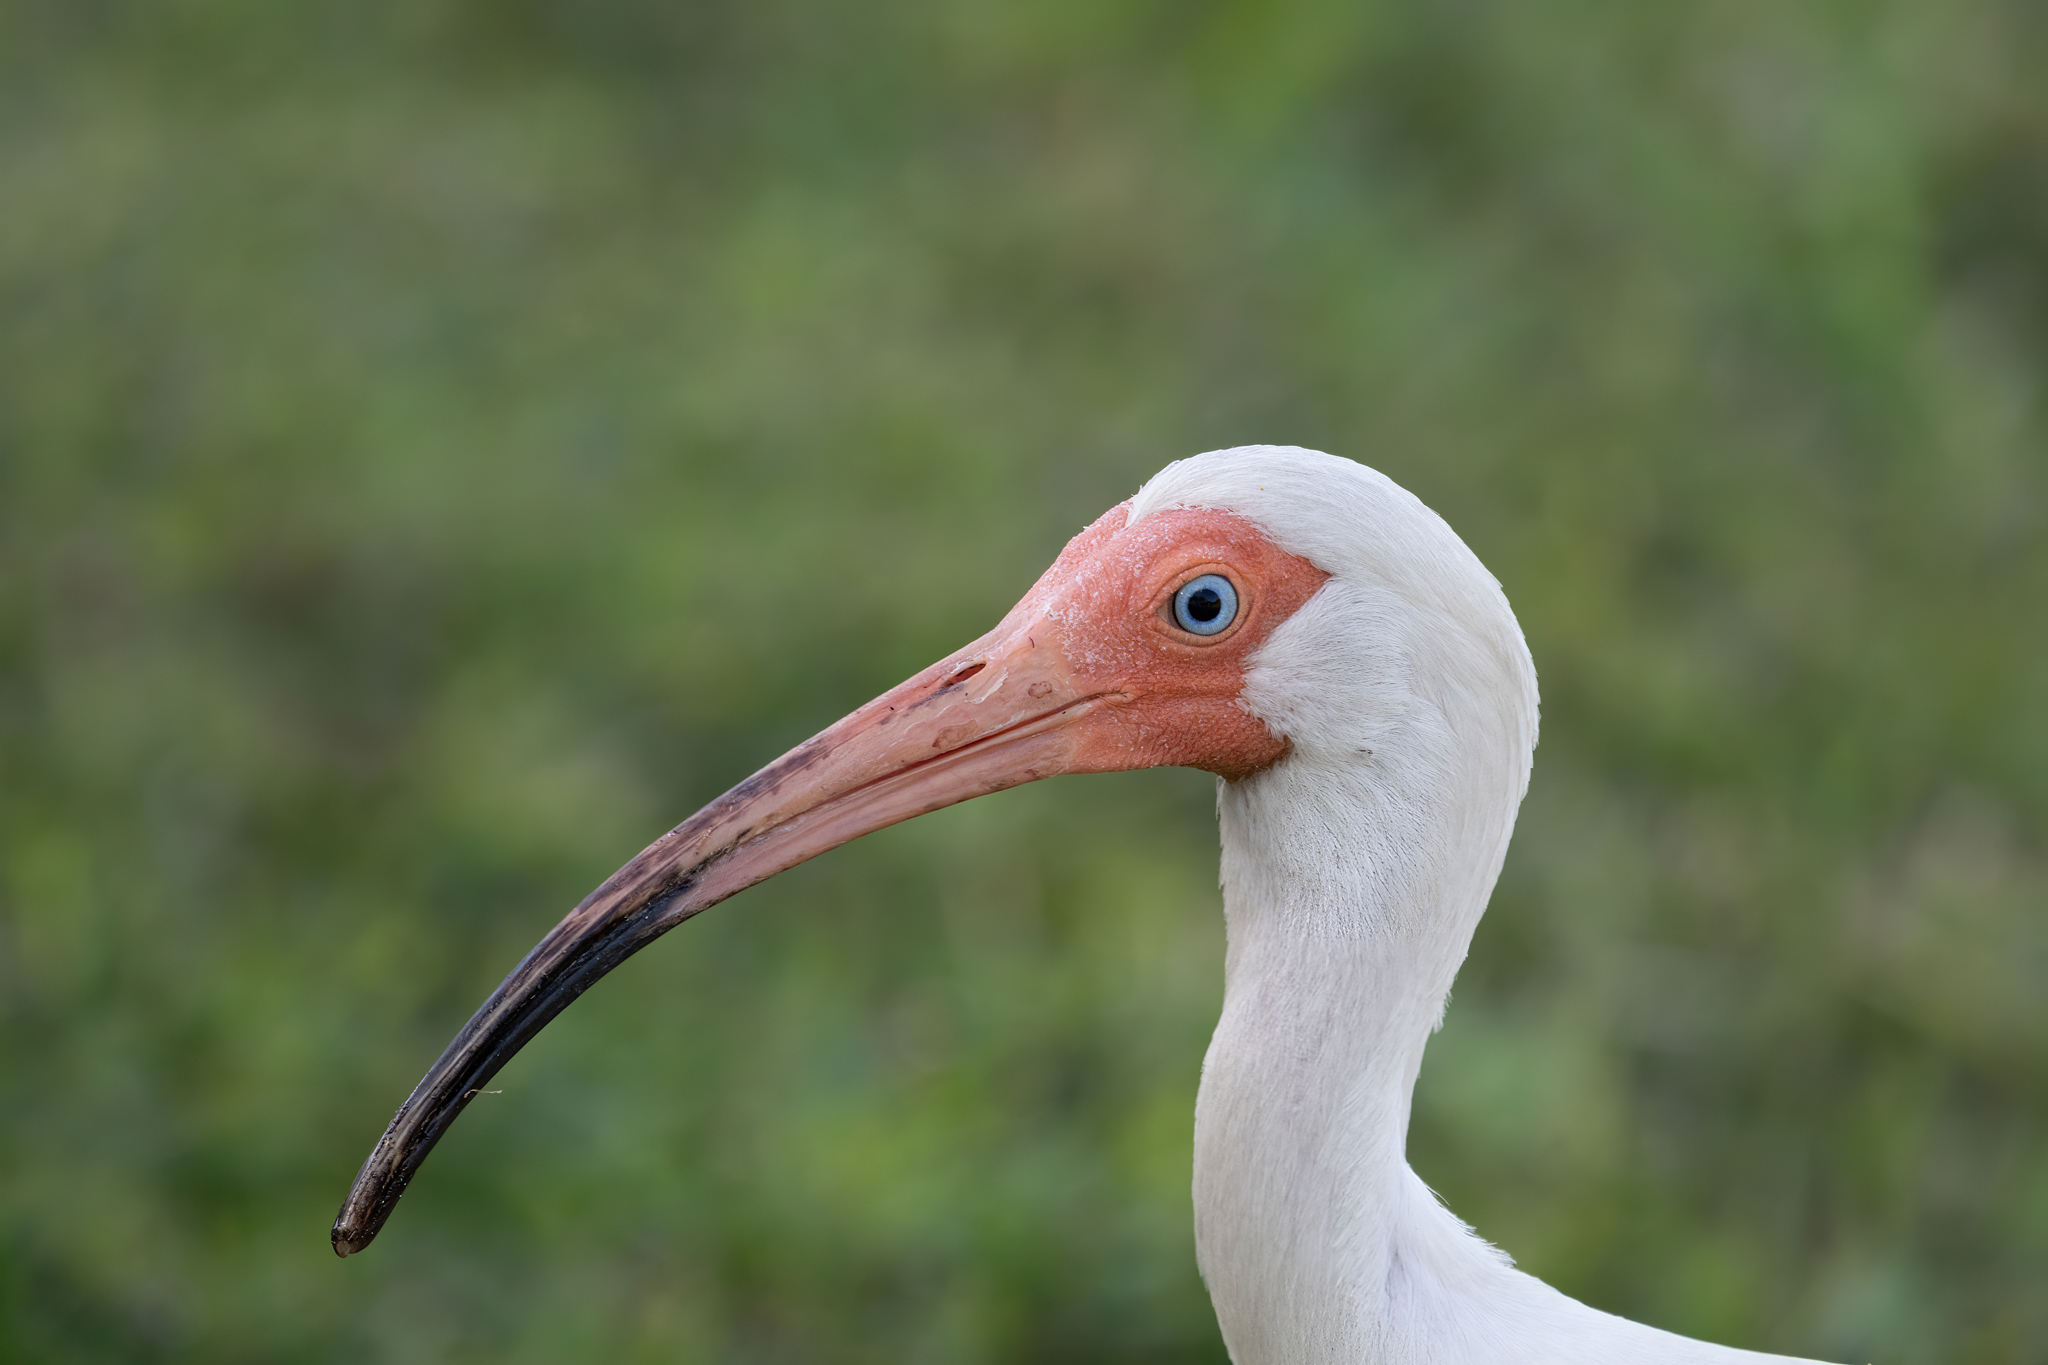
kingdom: Animalia
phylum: Chordata
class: Aves
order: Pelecaniformes
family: Threskiornithidae
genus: Eudocimus
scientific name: Eudocimus albus
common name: White ibis
